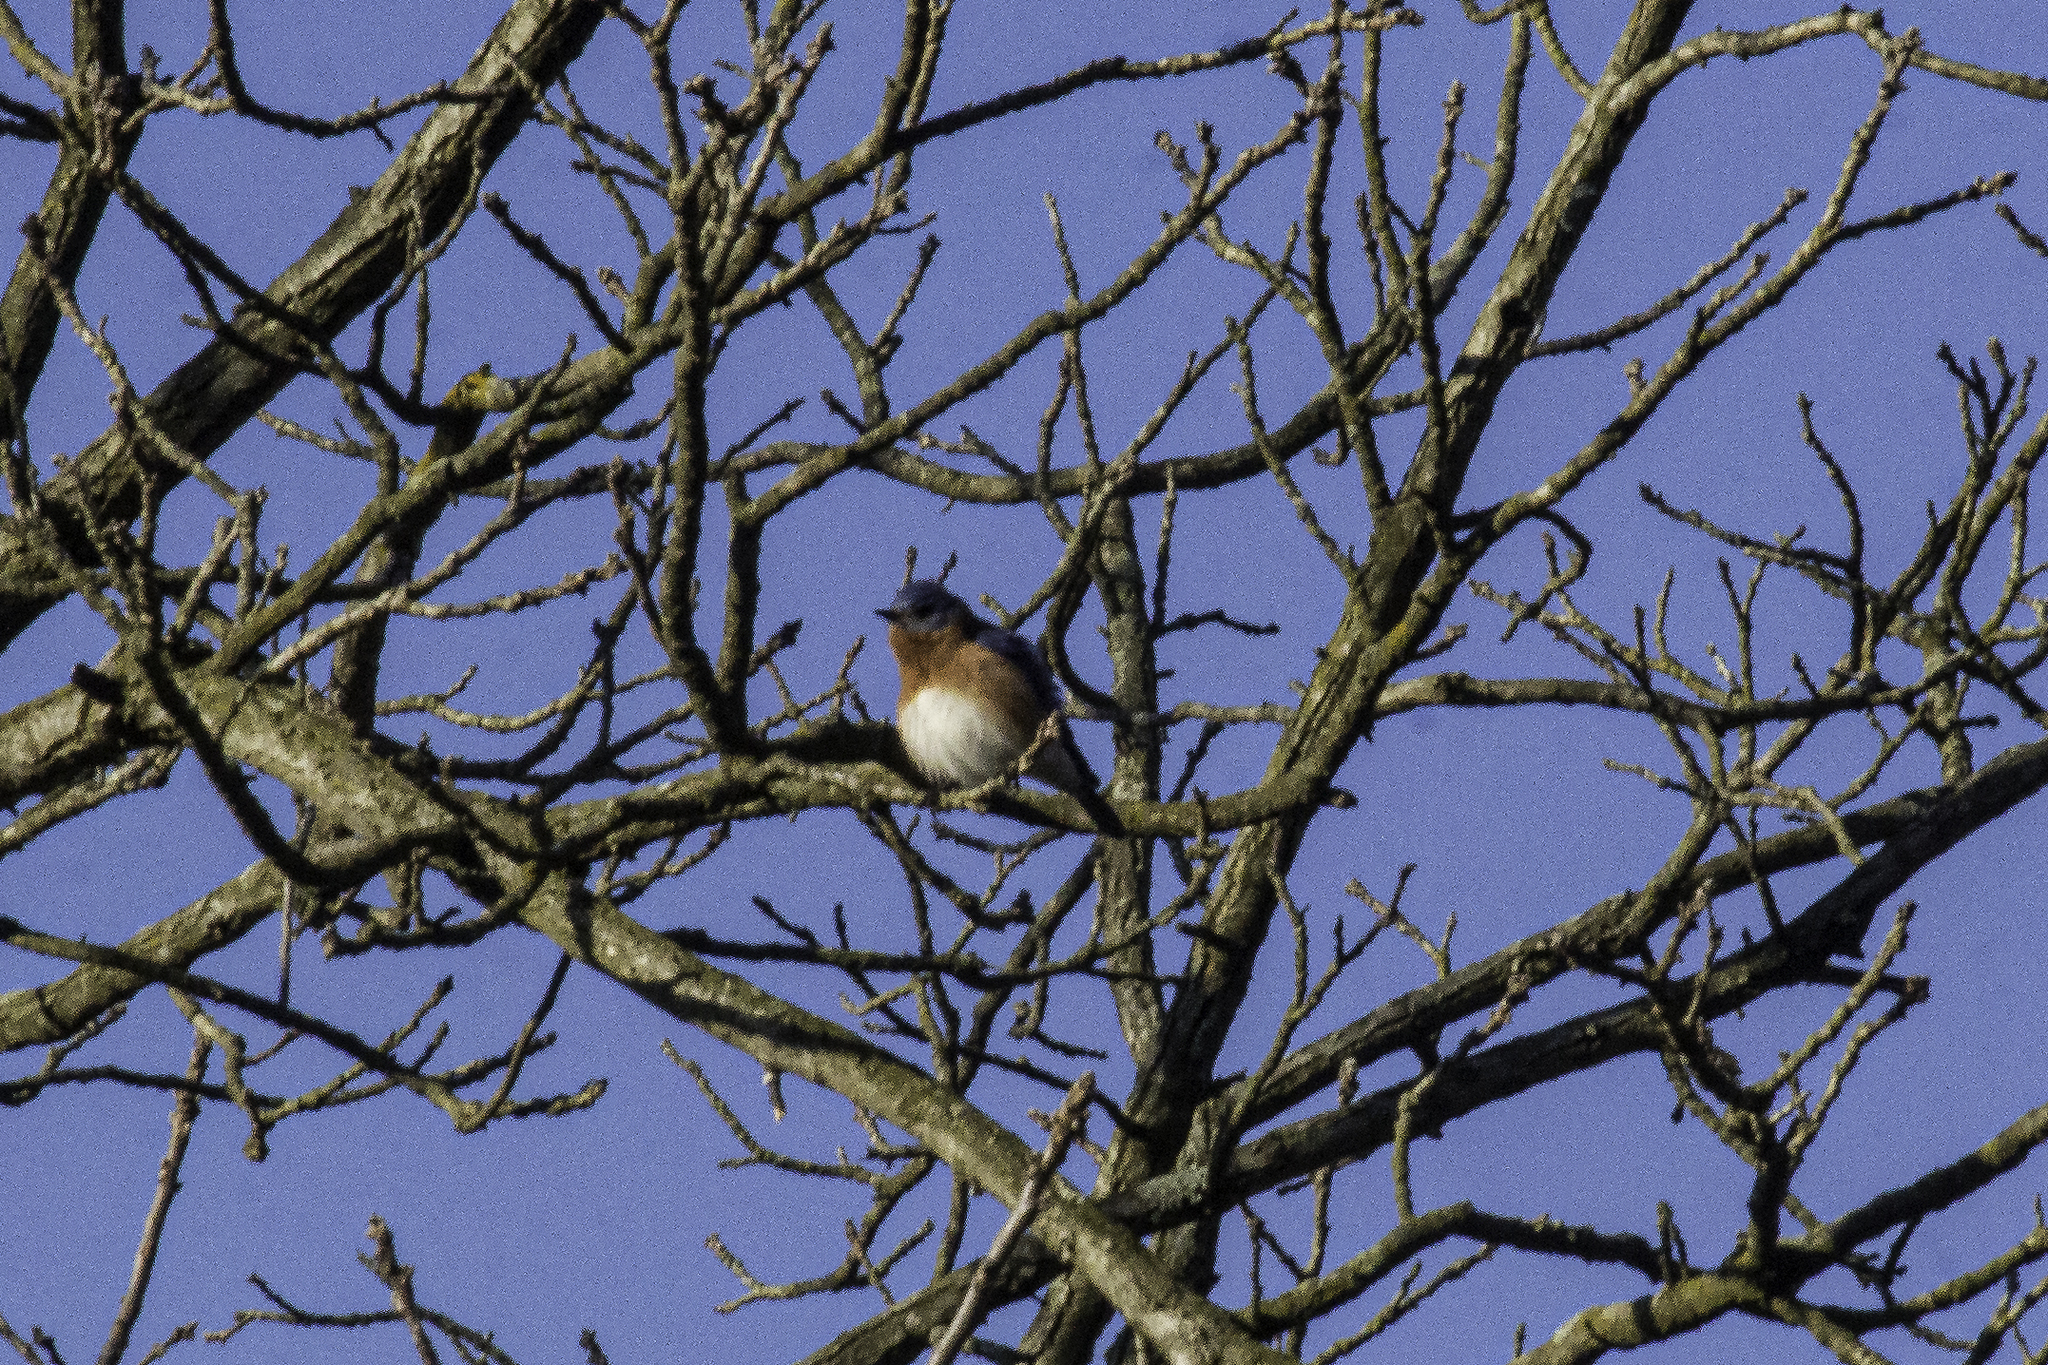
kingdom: Animalia
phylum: Chordata
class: Aves
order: Passeriformes
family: Turdidae
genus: Sialia
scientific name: Sialia sialis
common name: Eastern bluebird
